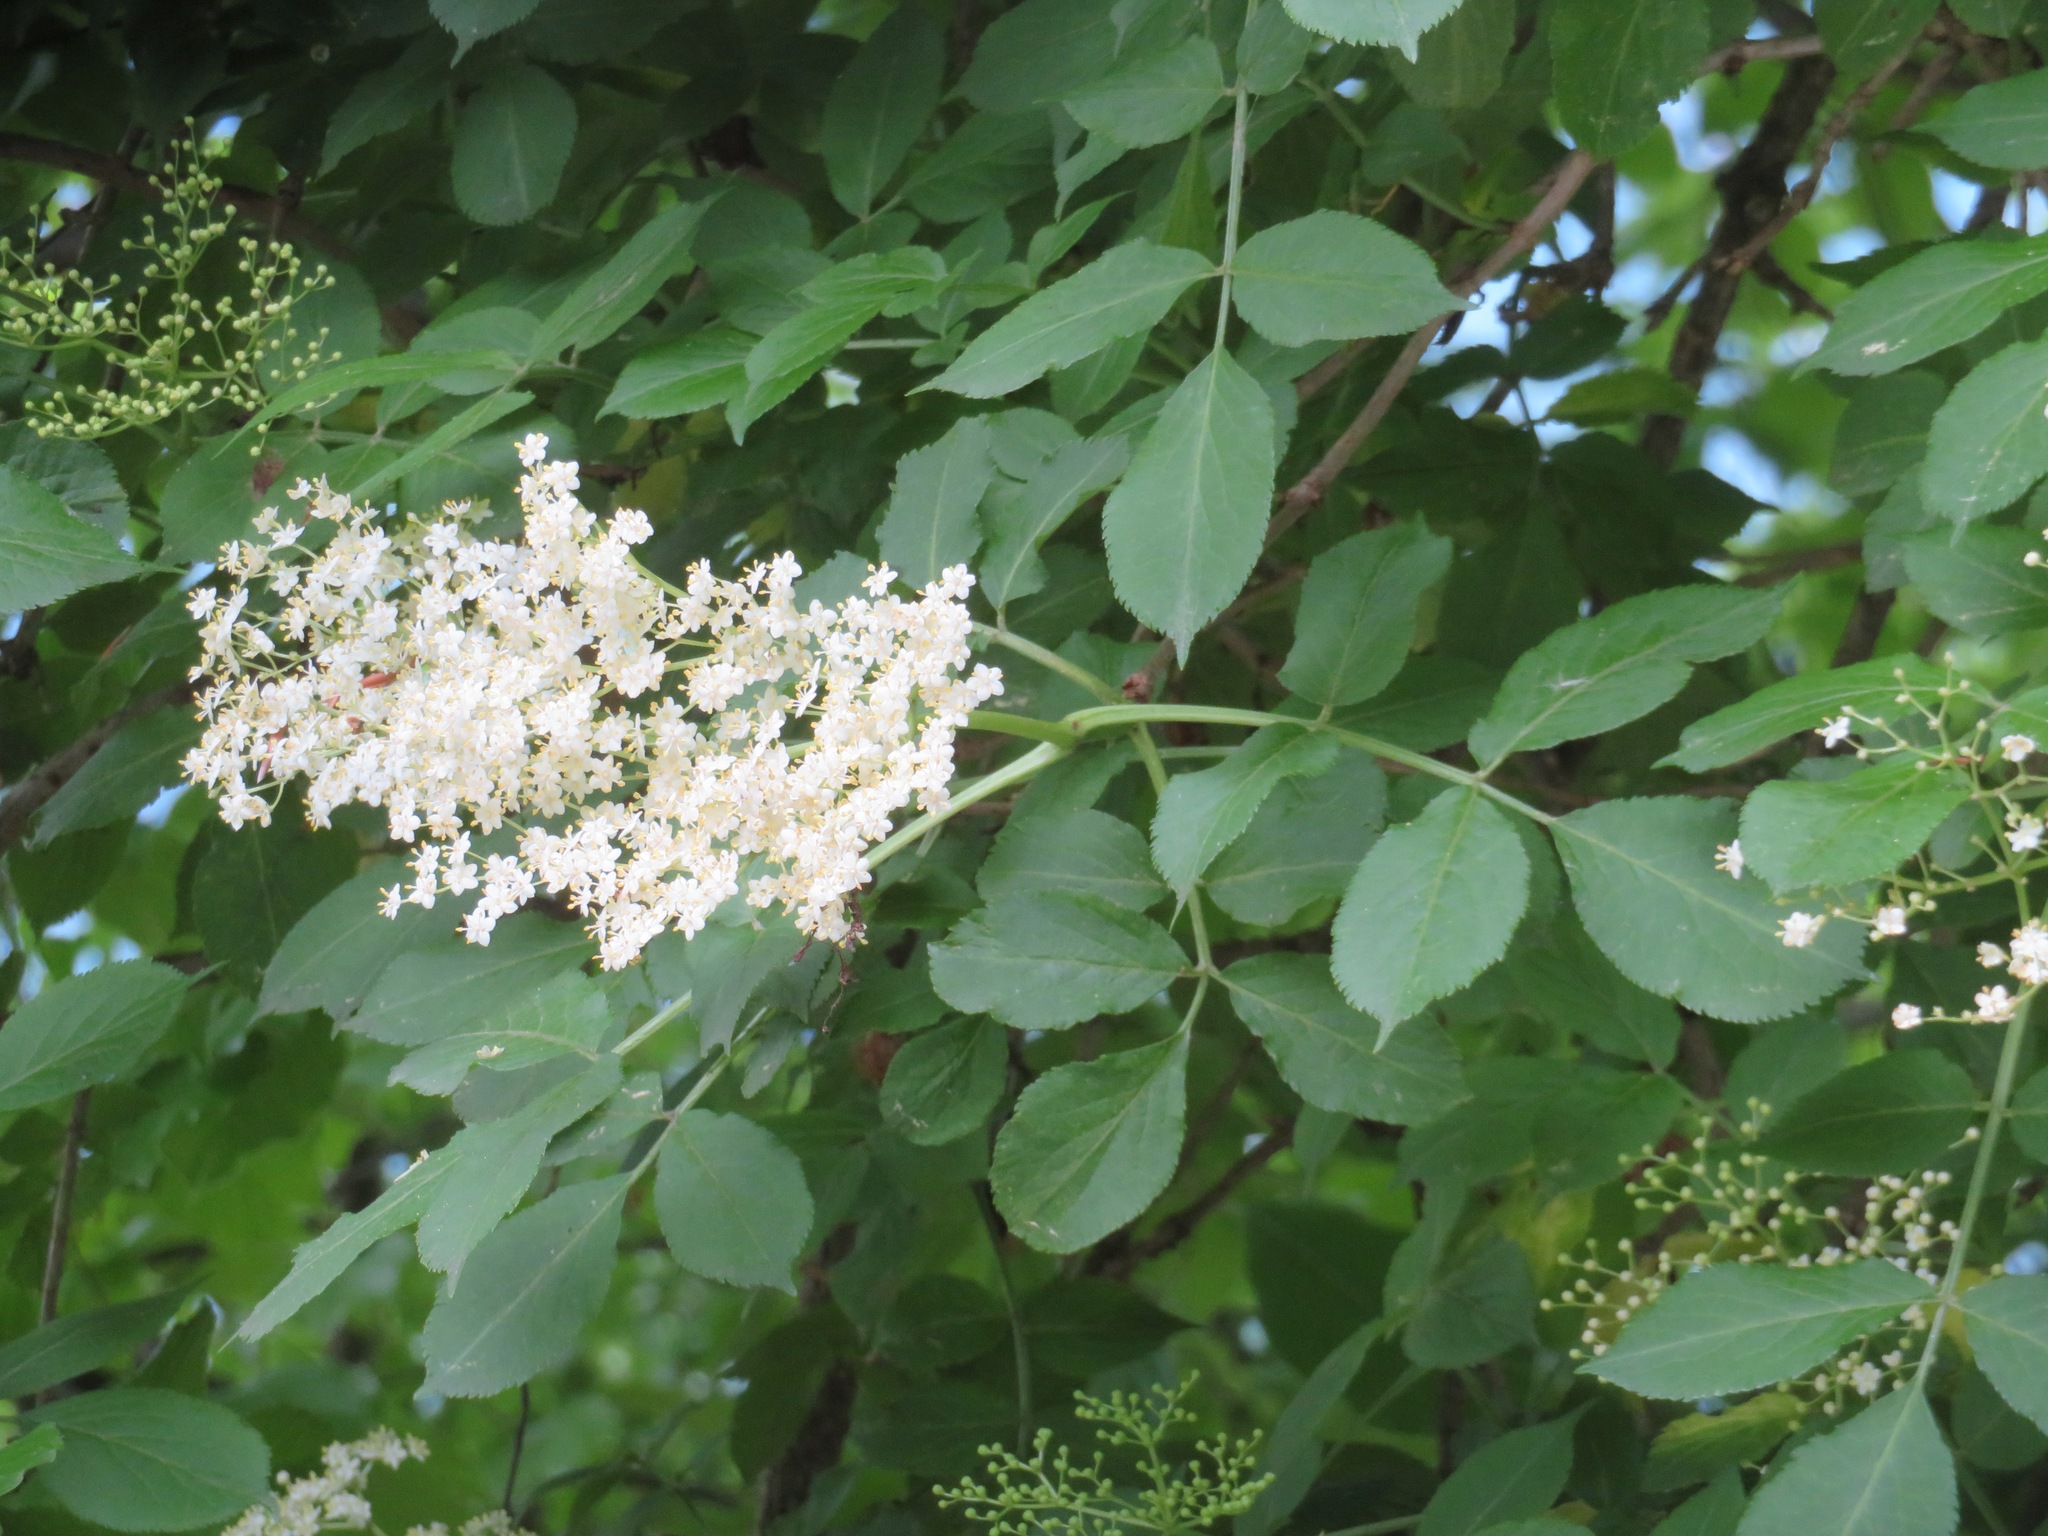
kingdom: Plantae
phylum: Tracheophyta
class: Magnoliopsida
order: Dipsacales
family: Viburnaceae
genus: Sambucus
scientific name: Sambucus nigra
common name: Elder
